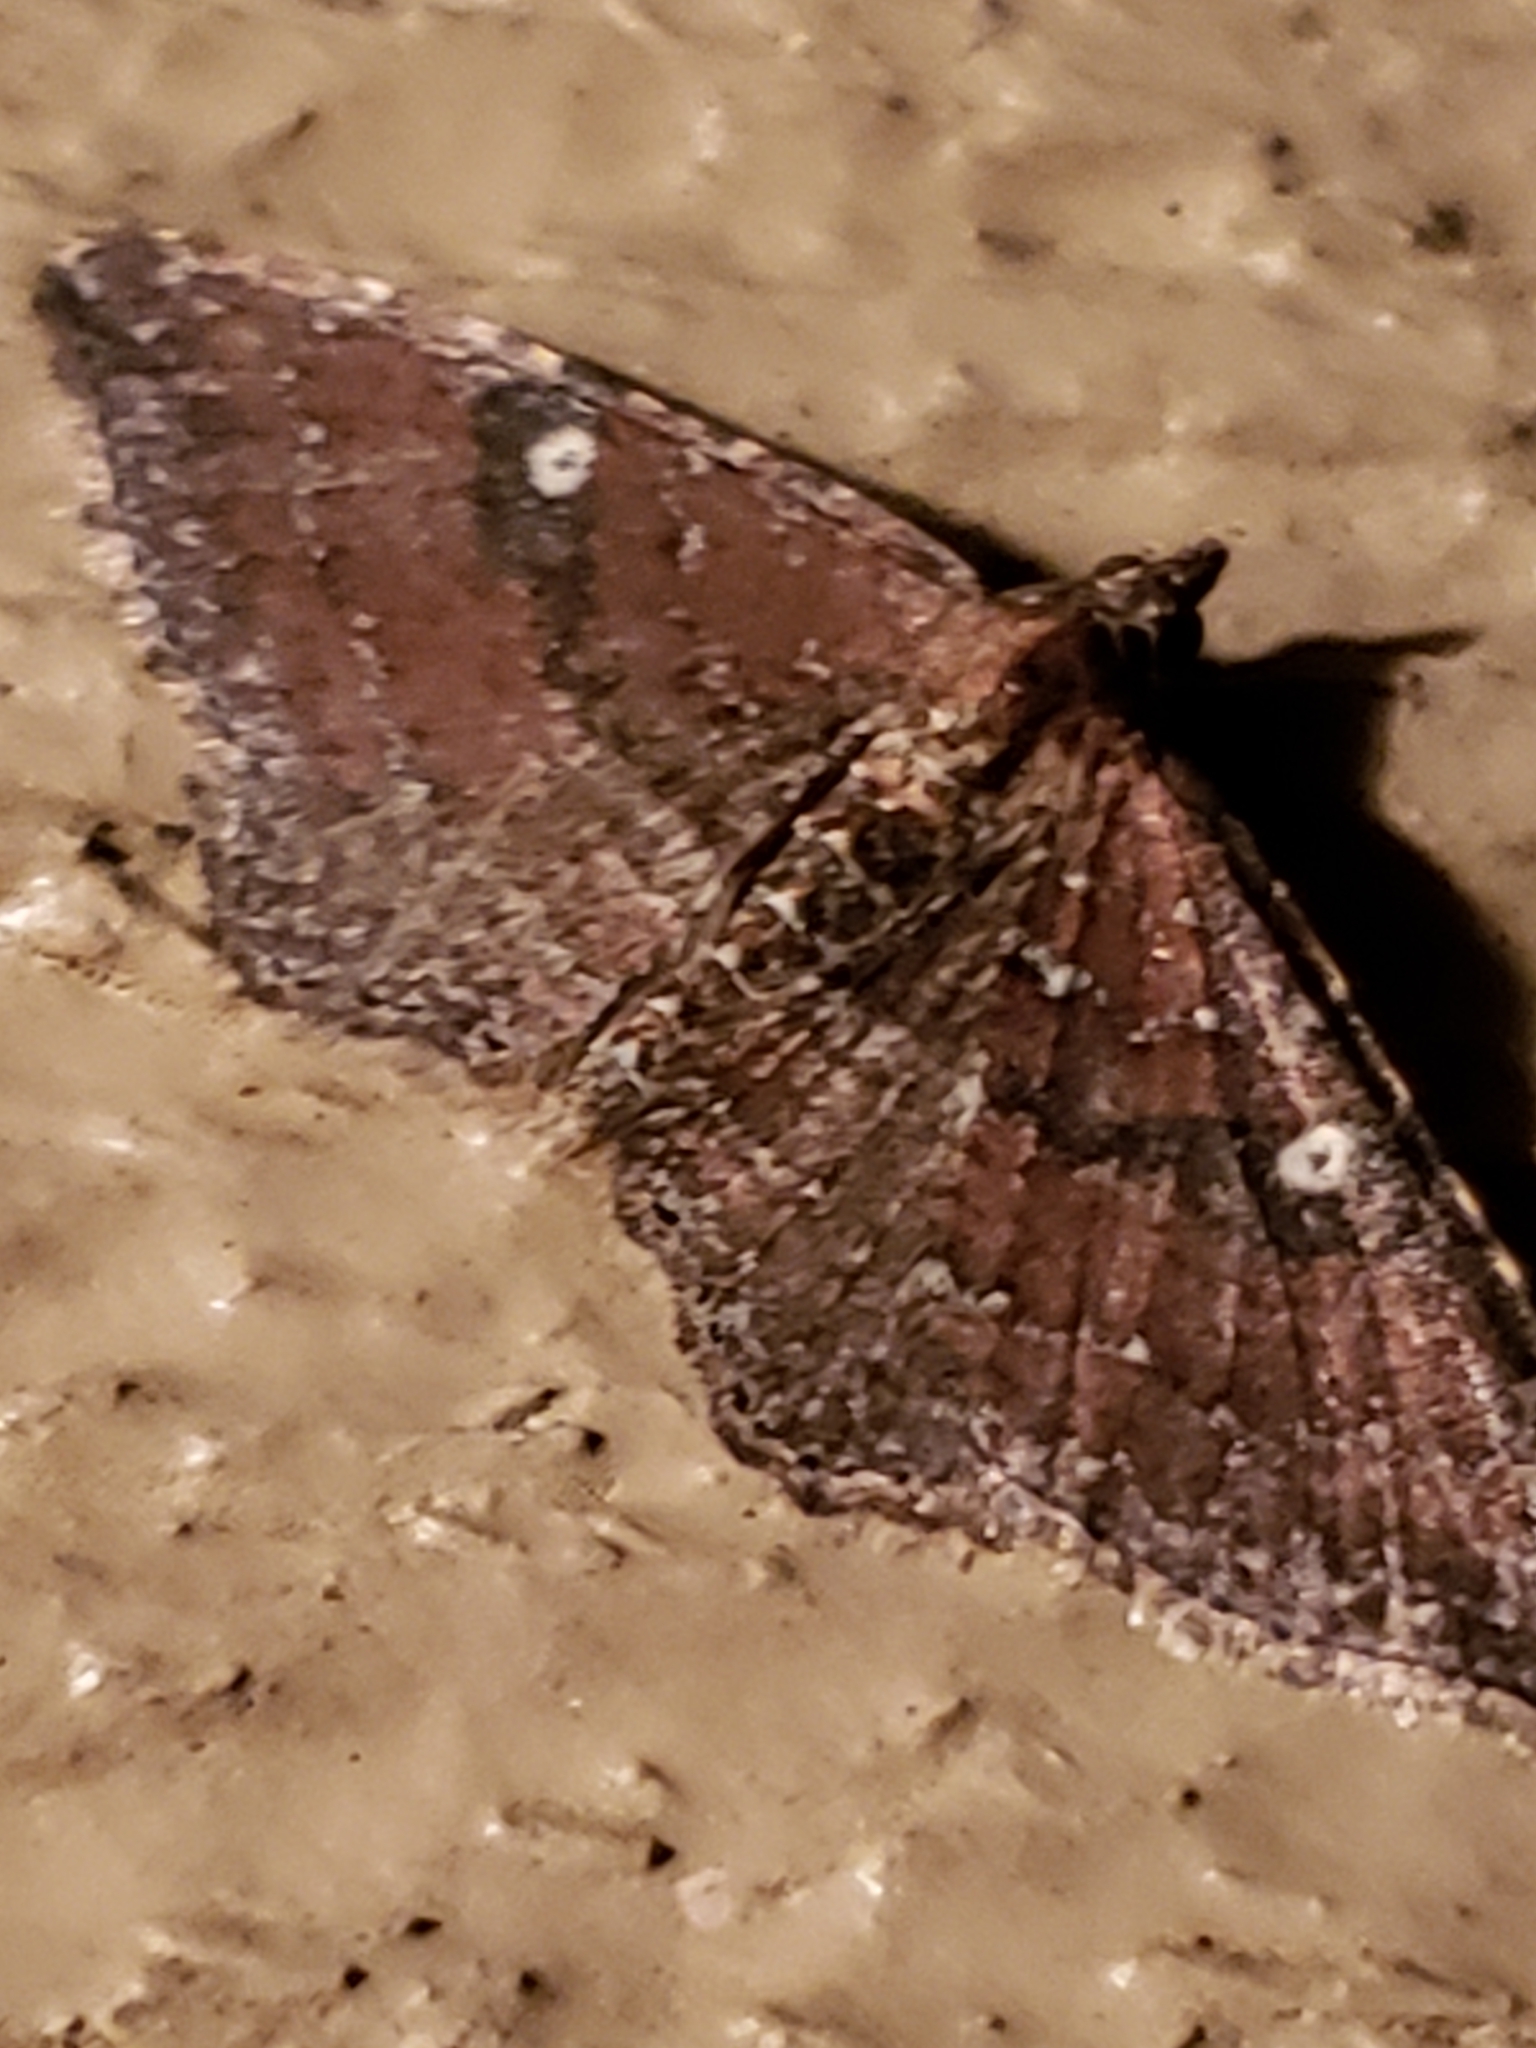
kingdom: Animalia
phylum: Arthropoda
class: Insecta
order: Lepidoptera
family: Geometridae
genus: Orthonama
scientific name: Orthonama obstipata
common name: The gem
